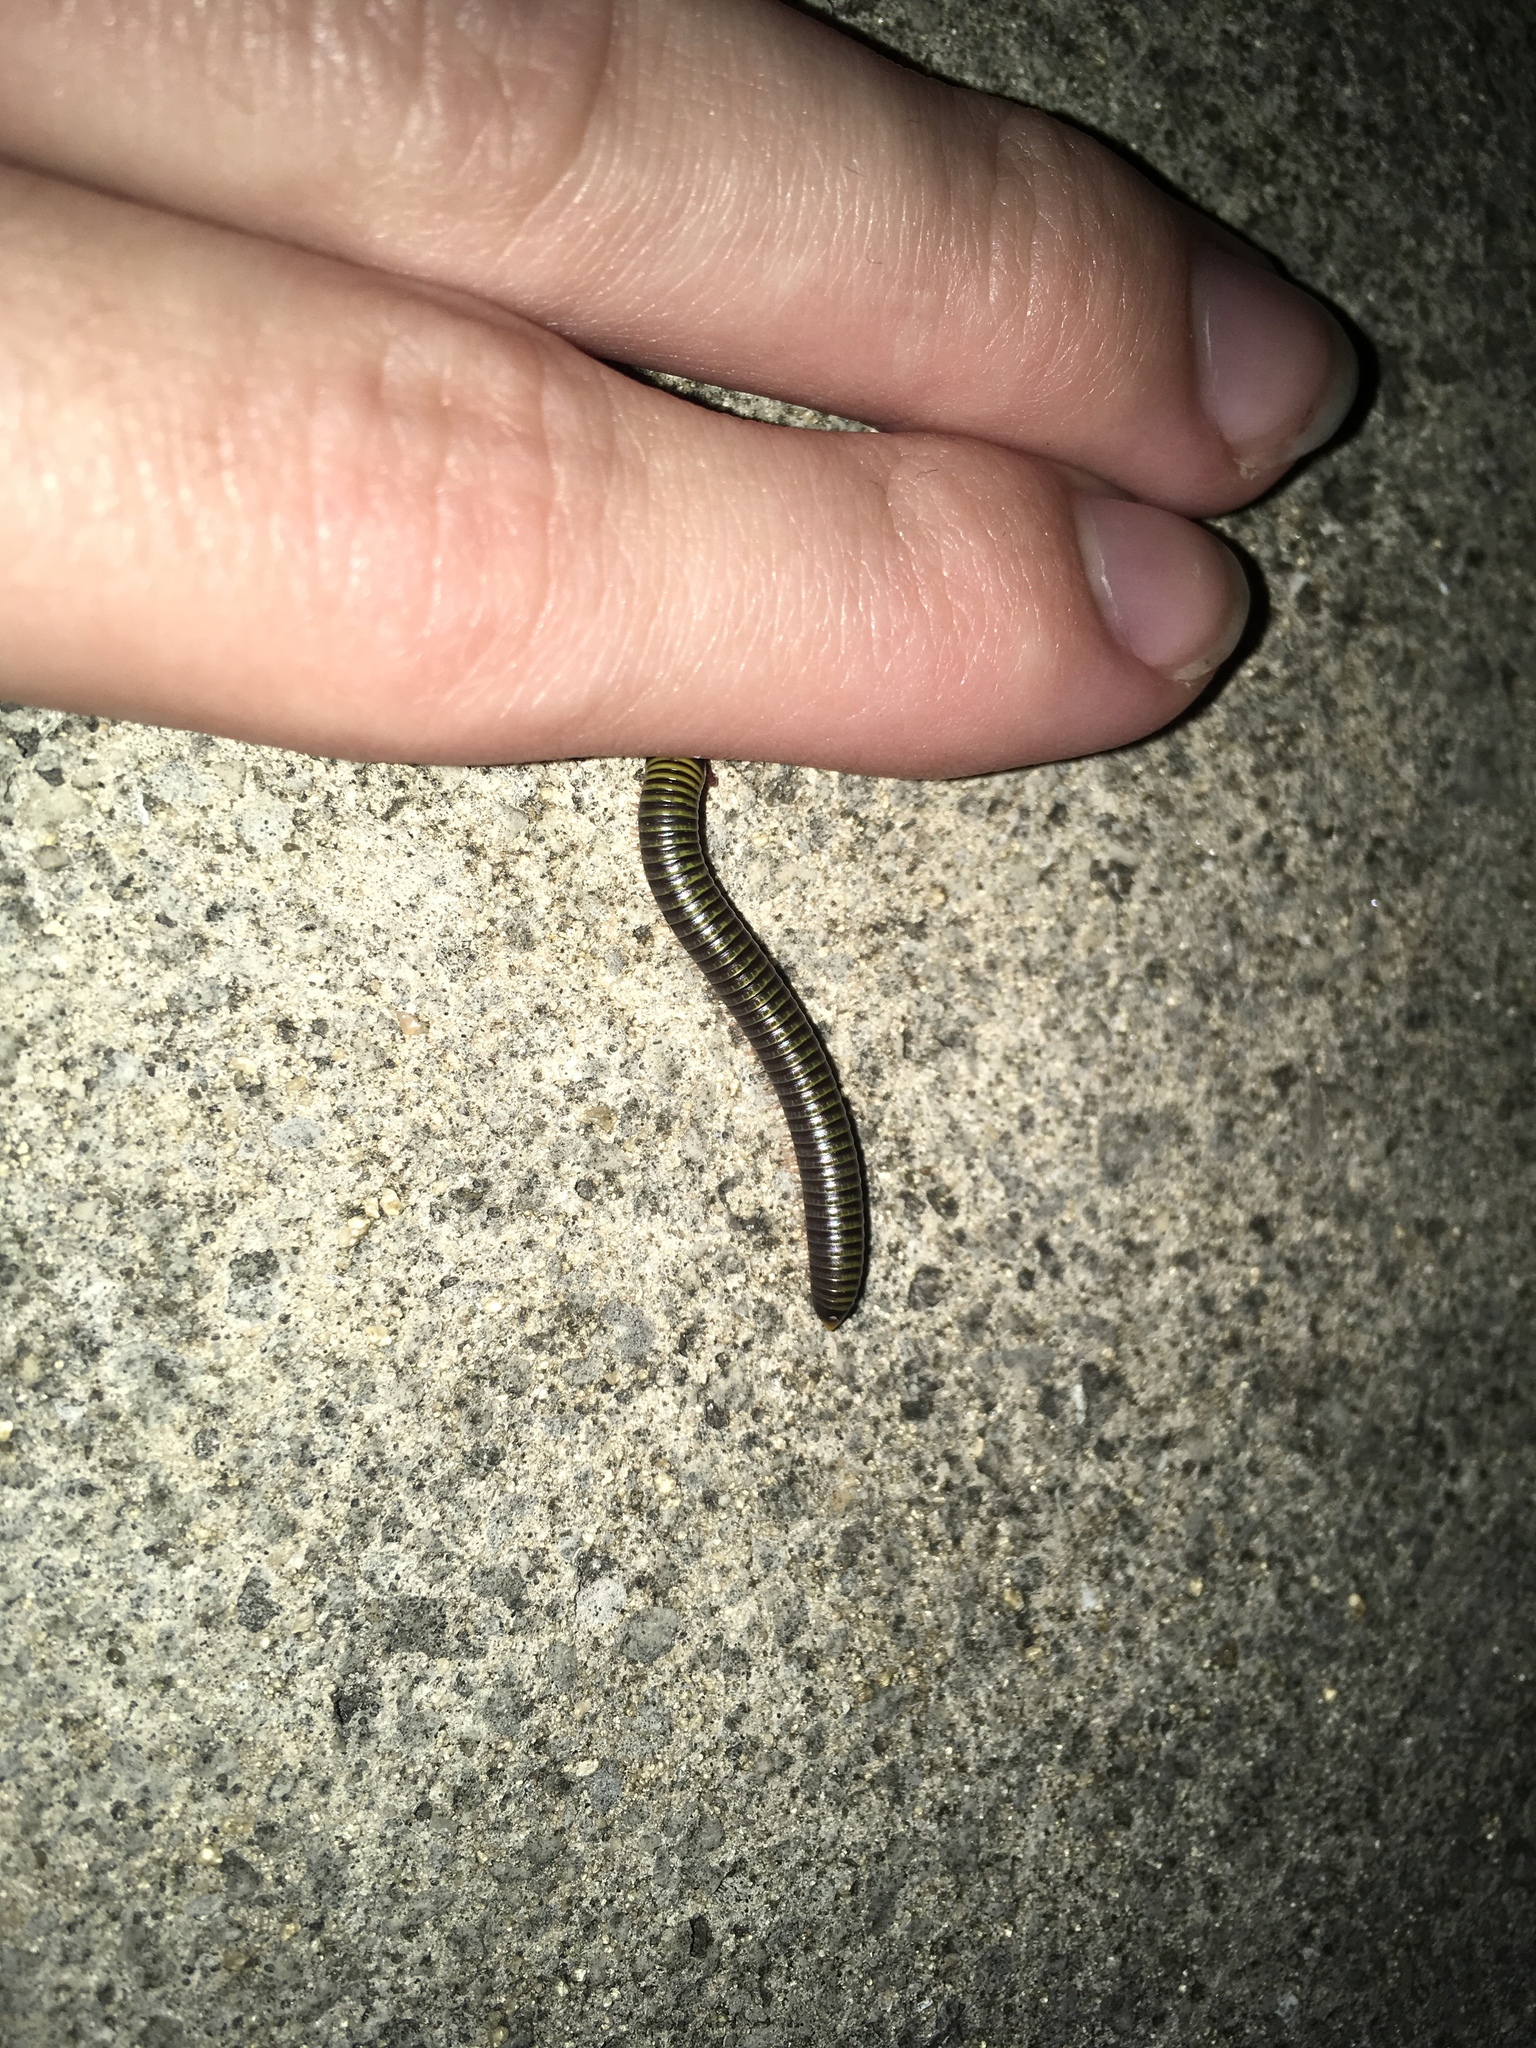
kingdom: Animalia
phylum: Arthropoda
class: Diplopoda
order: Spirobolida
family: Rhinocricidae
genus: Anadenobolus
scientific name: Anadenobolus monilicornis
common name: Caribbean millipede
